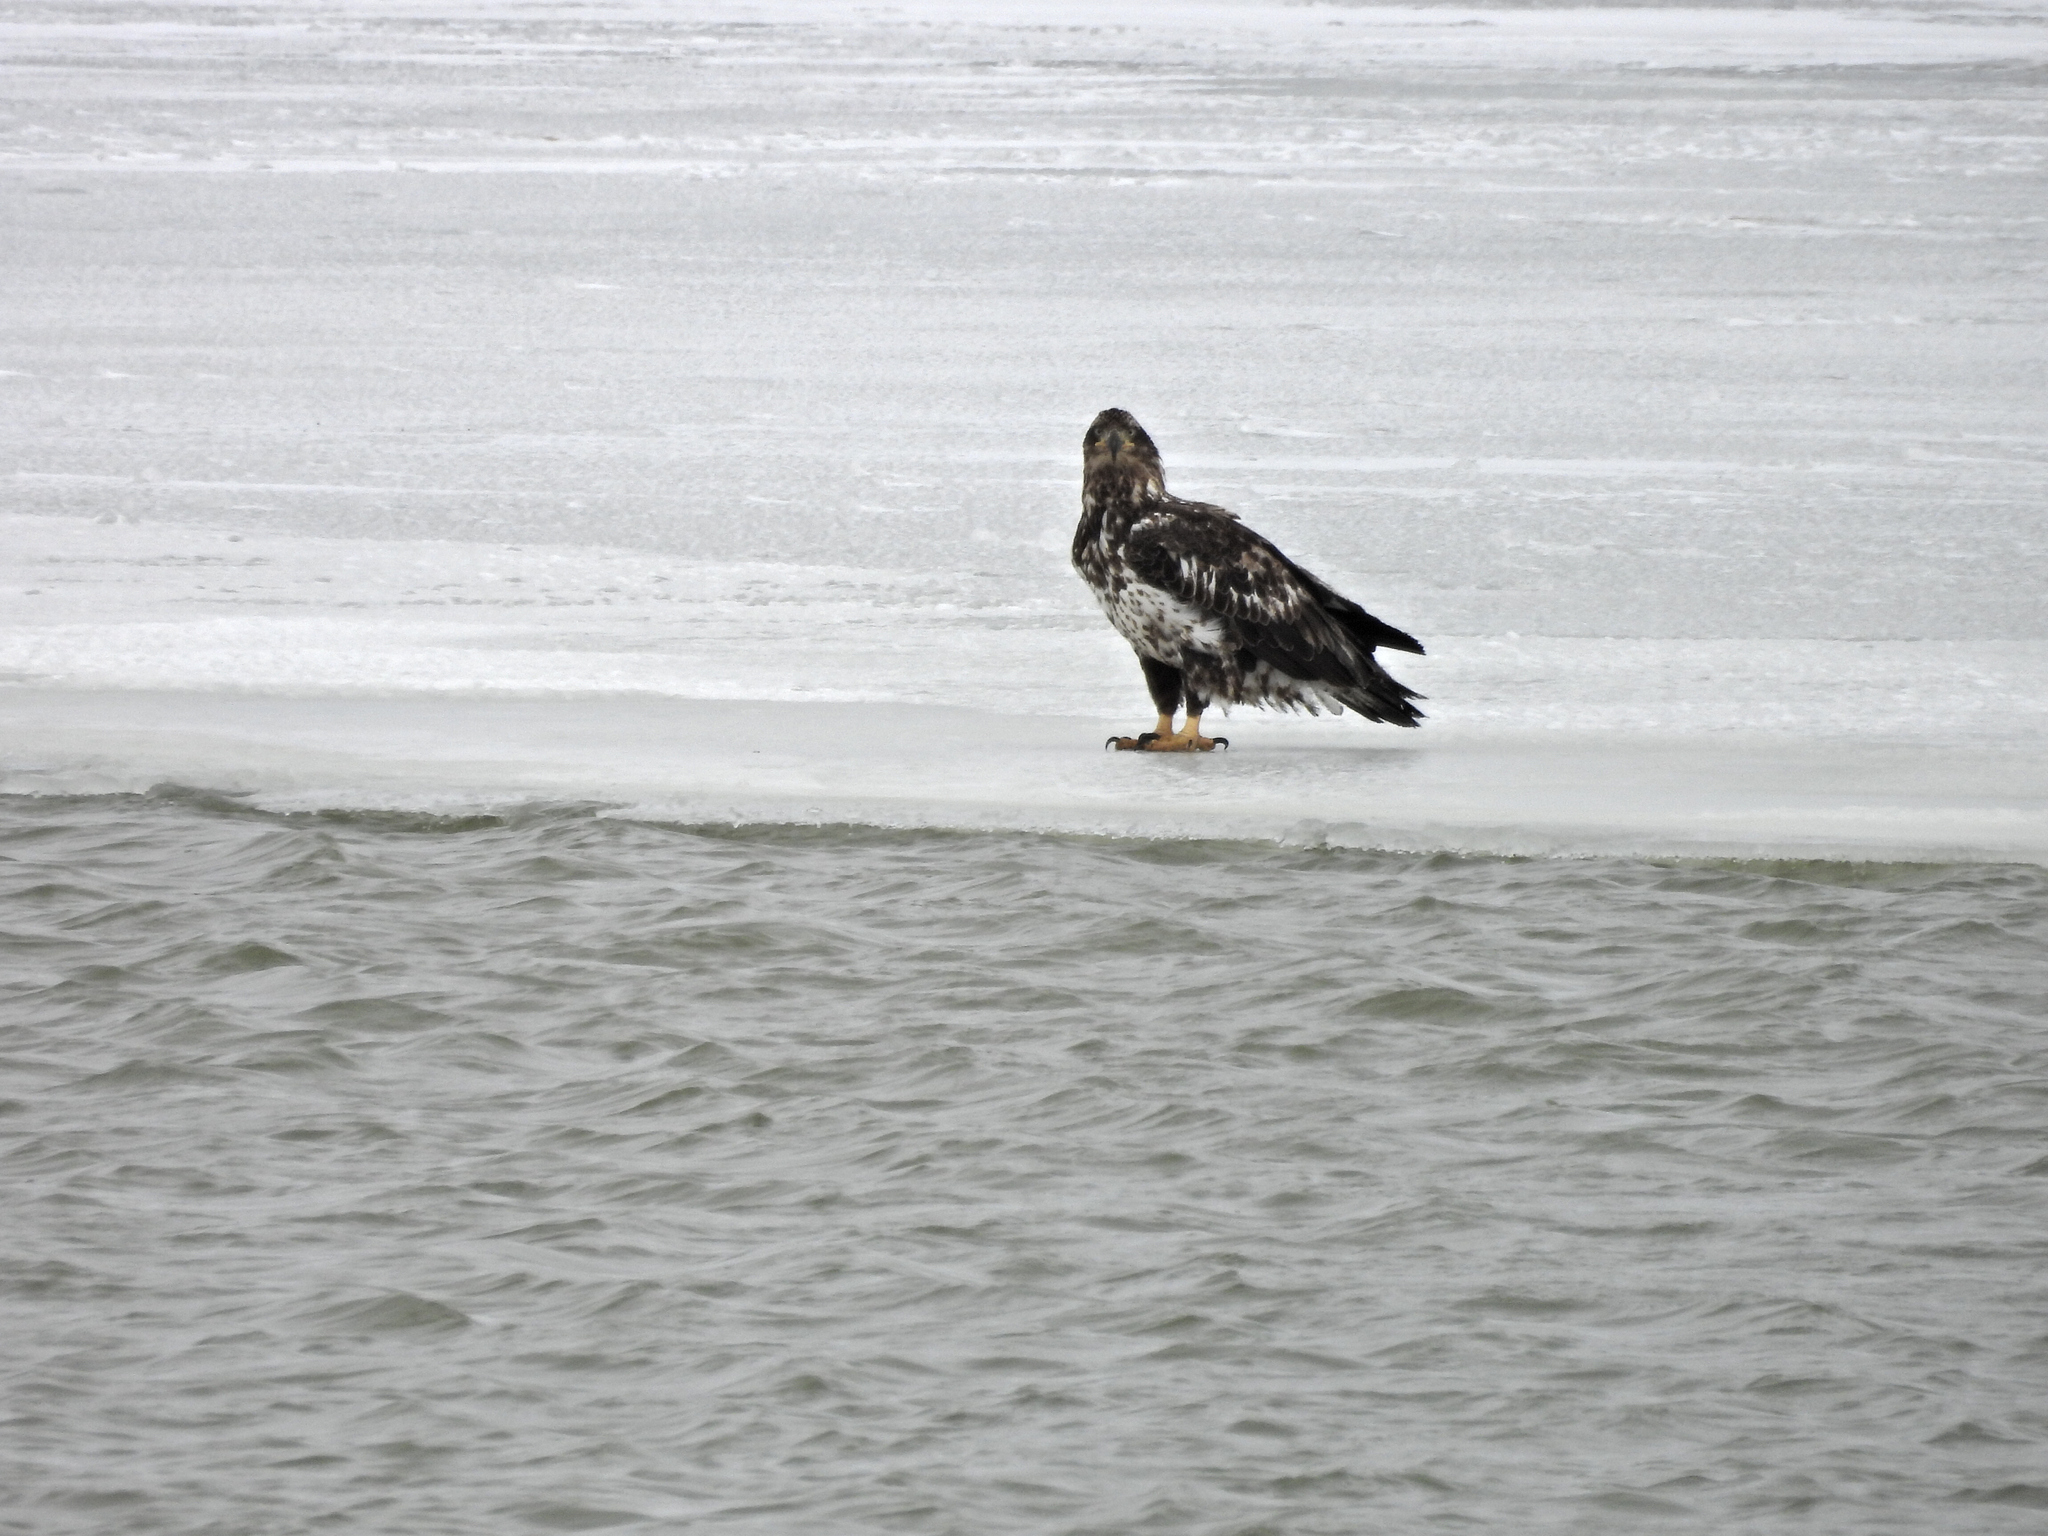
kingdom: Animalia
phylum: Chordata
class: Aves
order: Accipitriformes
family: Accipitridae
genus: Haliaeetus
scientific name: Haliaeetus leucocephalus
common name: Bald eagle
